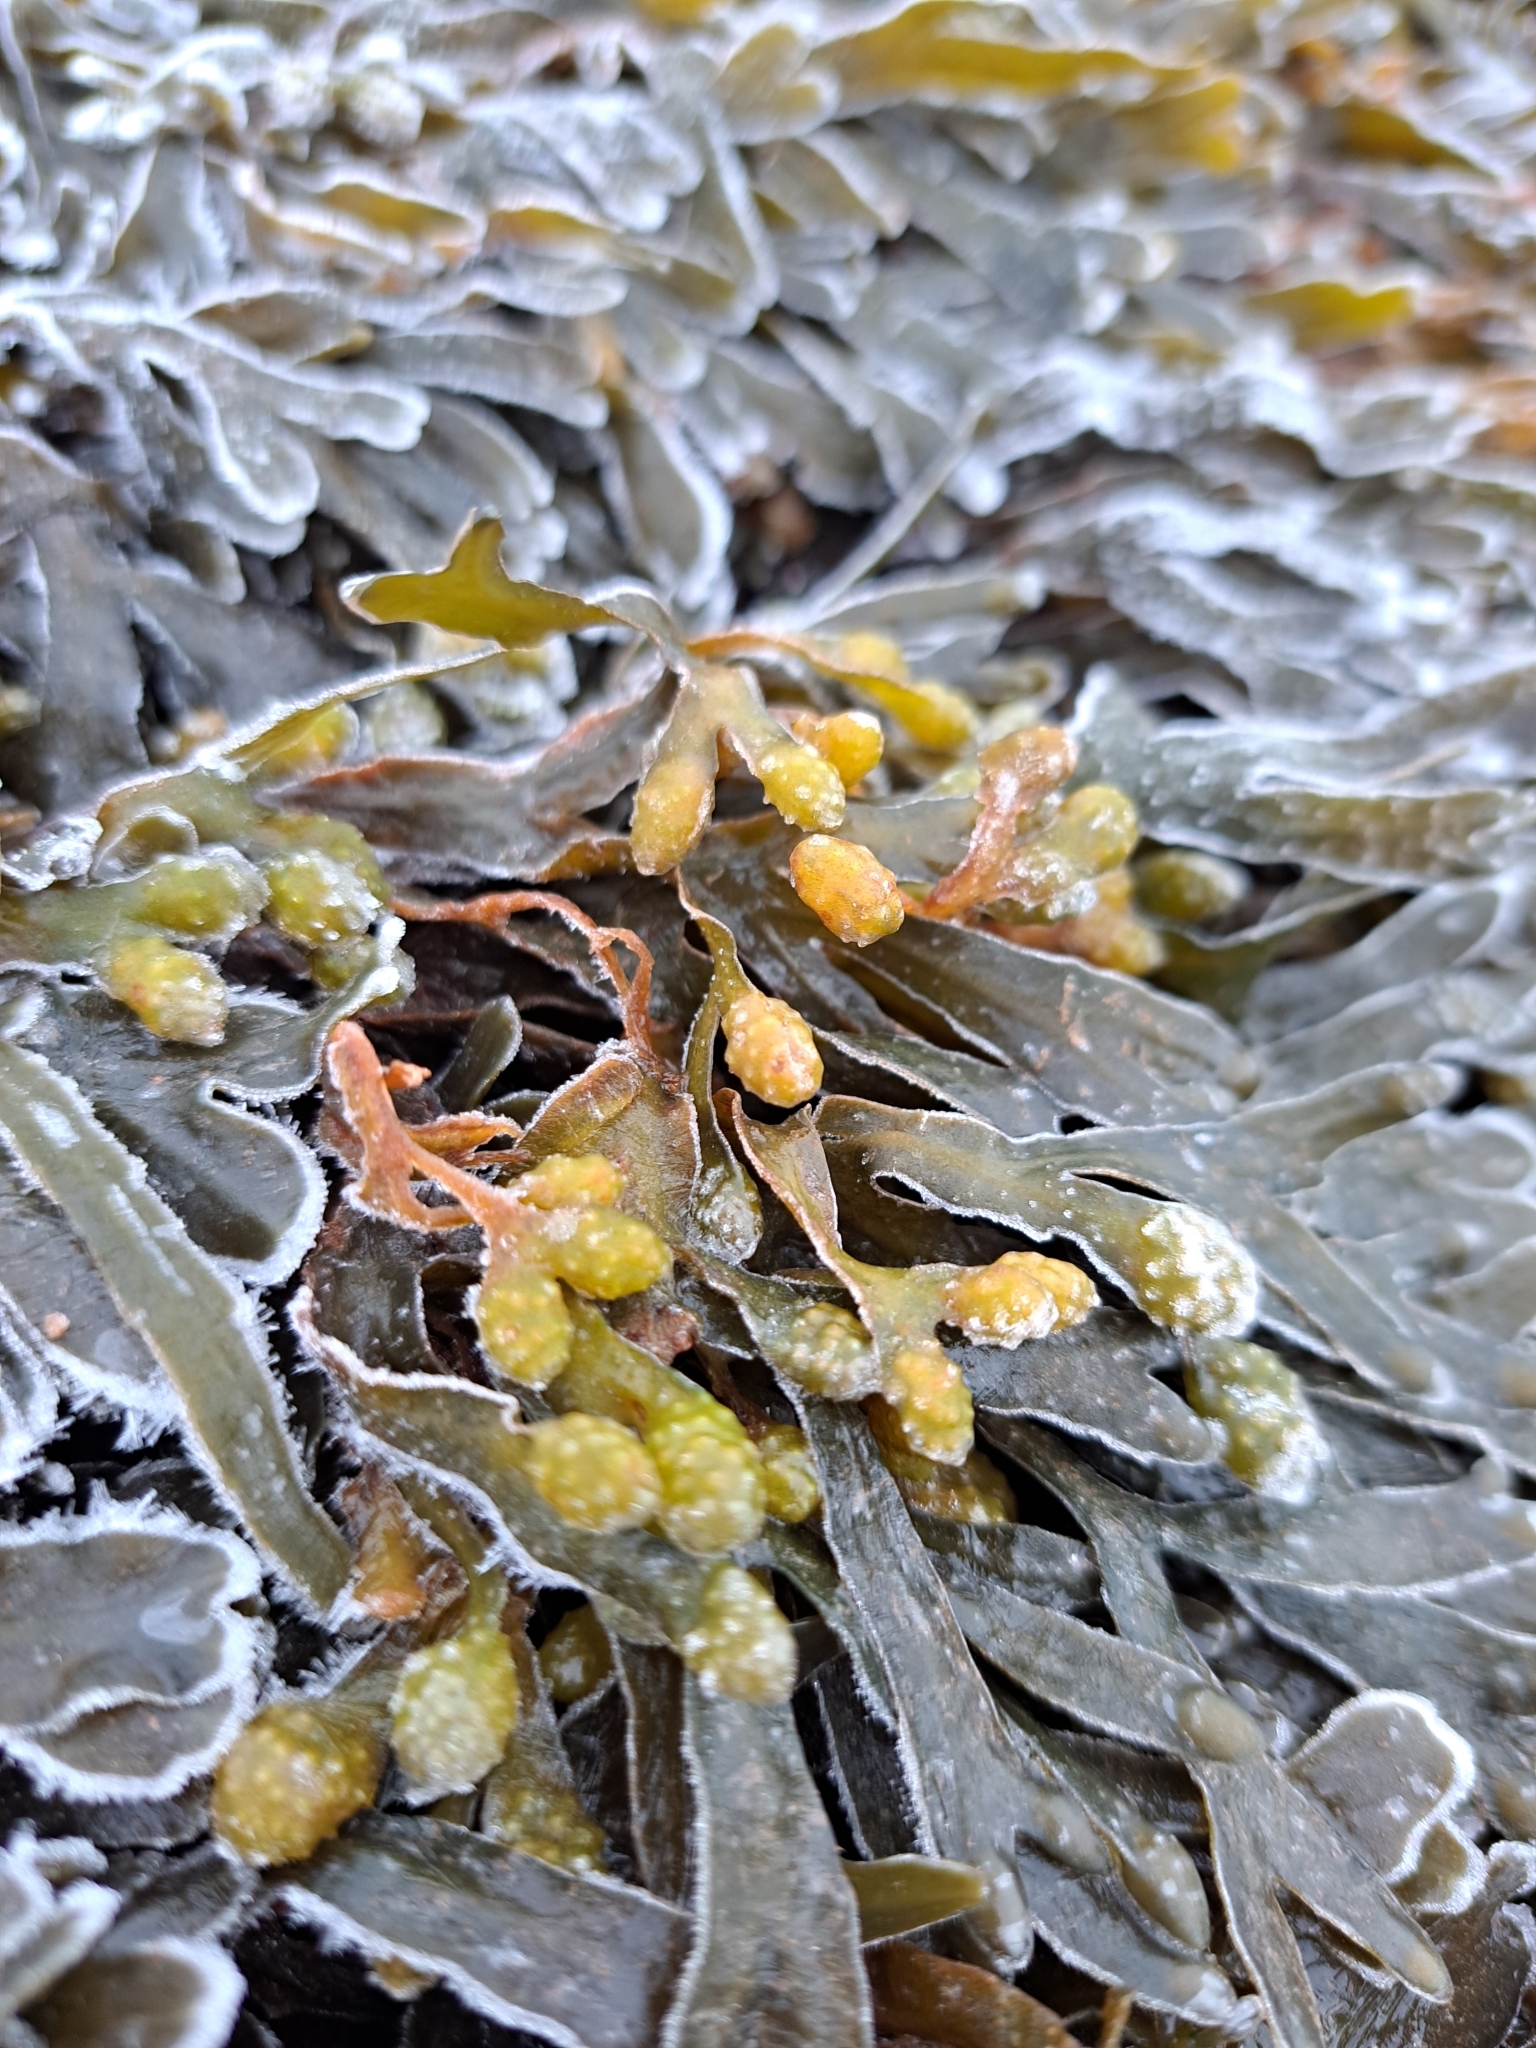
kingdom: Chromista
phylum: Ochrophyta
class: Phaeophyceae
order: Fucales
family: Fucaceae
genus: Fucus
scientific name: Fucus spiralis
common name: Spiral wrack
